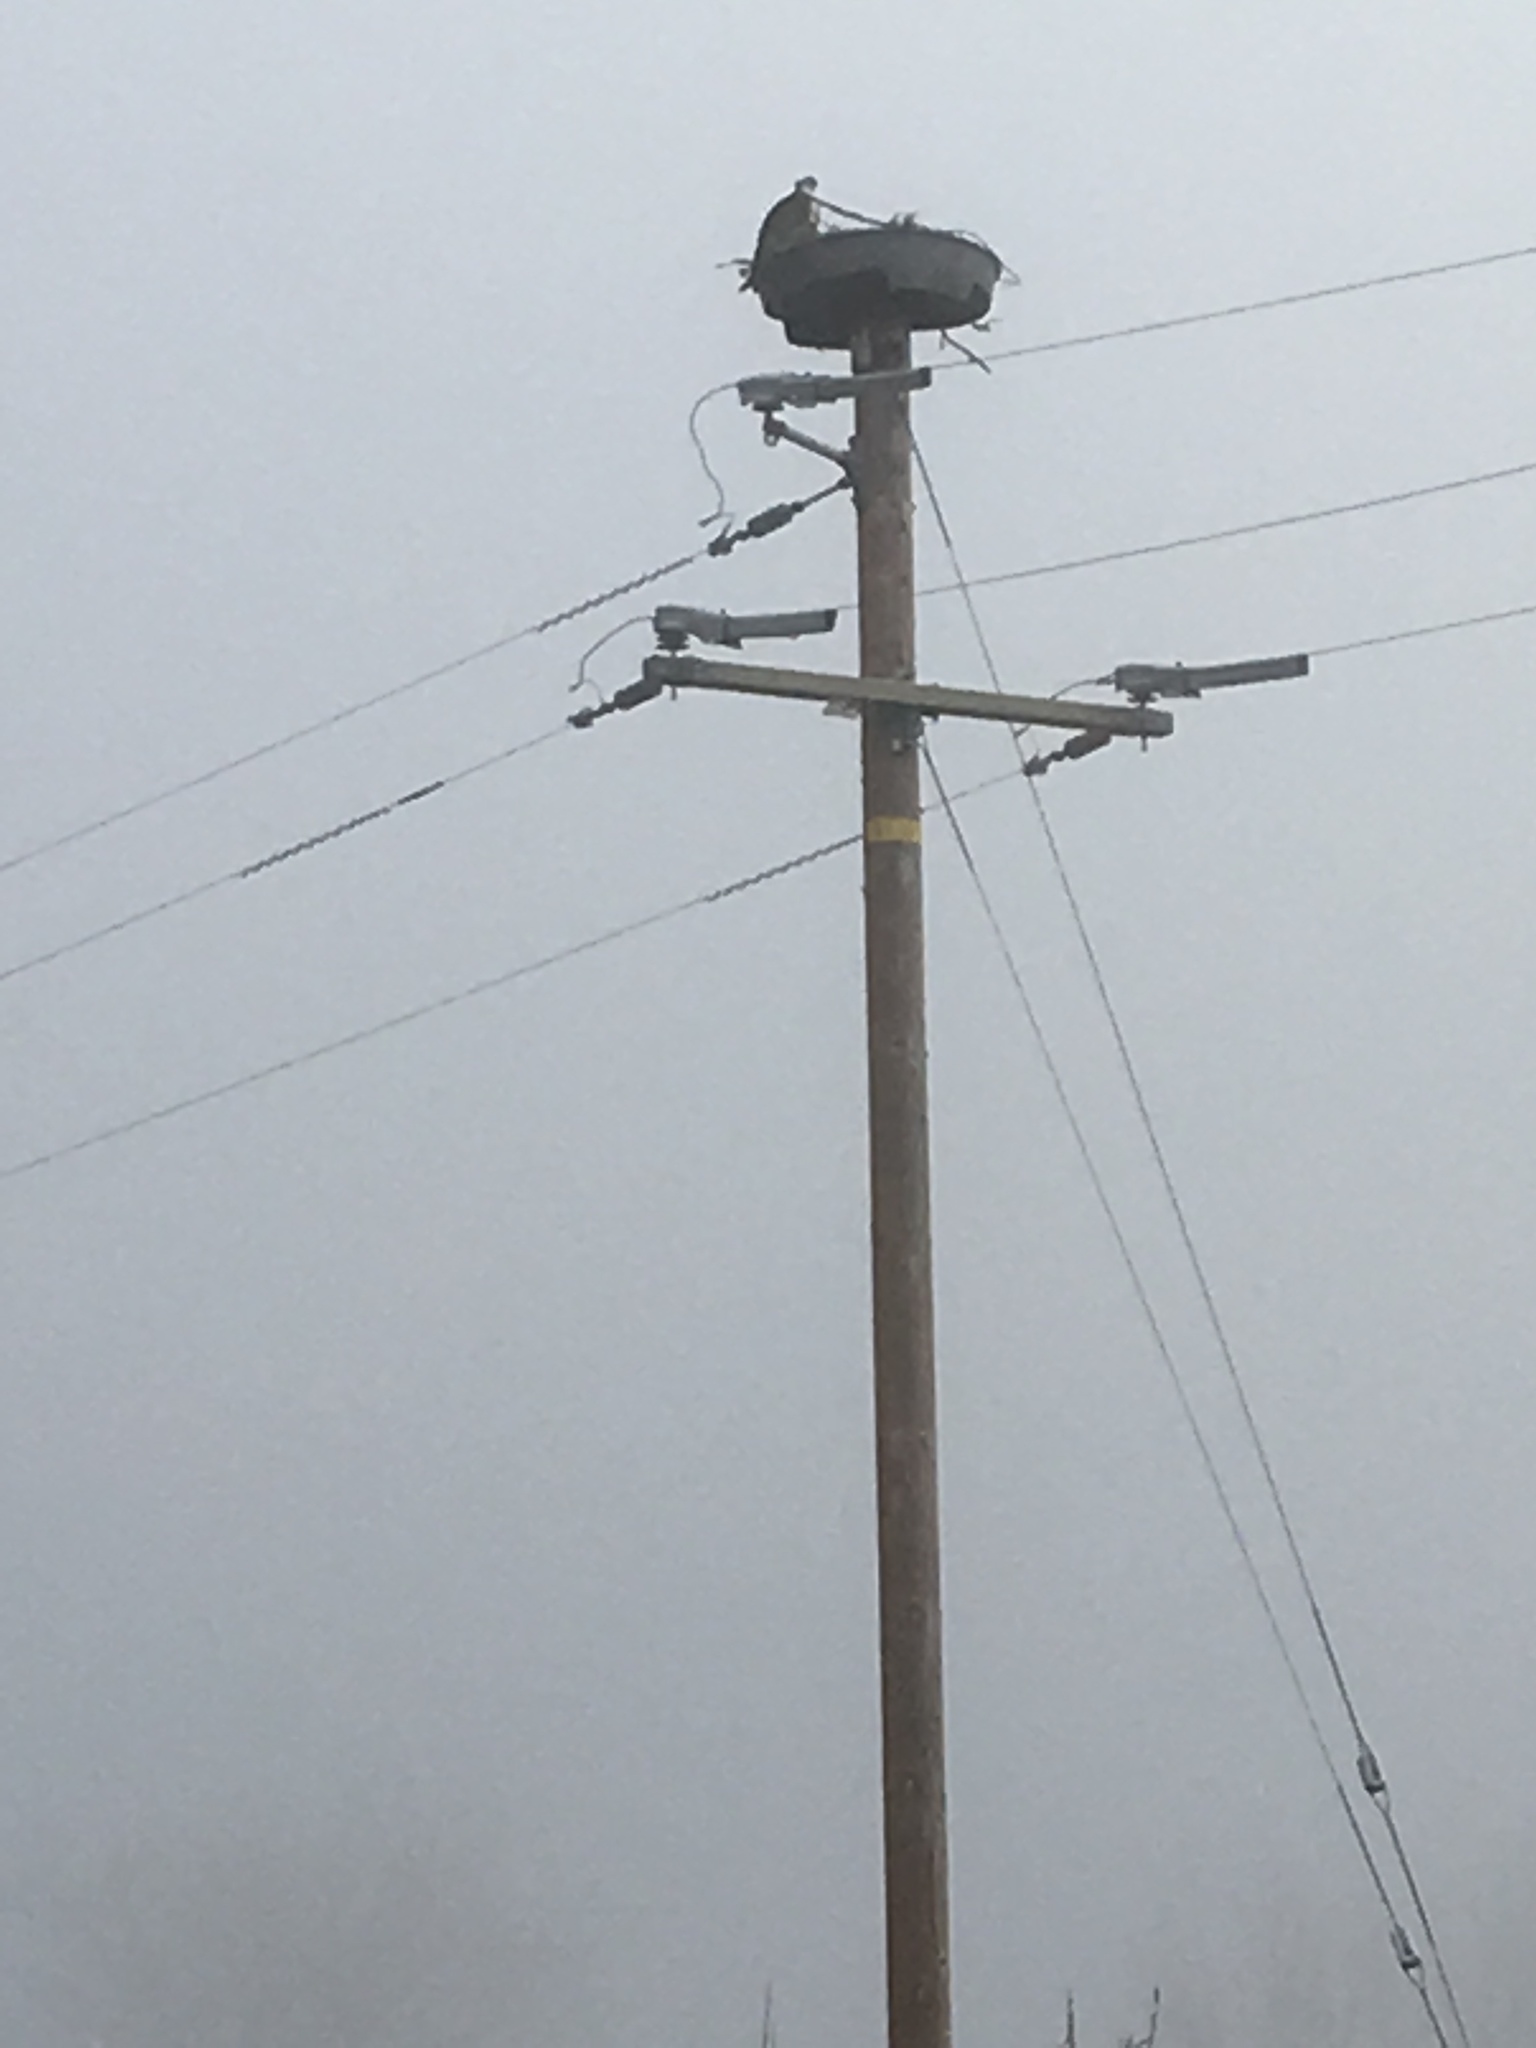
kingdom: Animalia
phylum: Chordata
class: Aves
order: Accipitriformes
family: Pandionidae
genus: Pandion
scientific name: Pandion haliaetus
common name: Osprey
